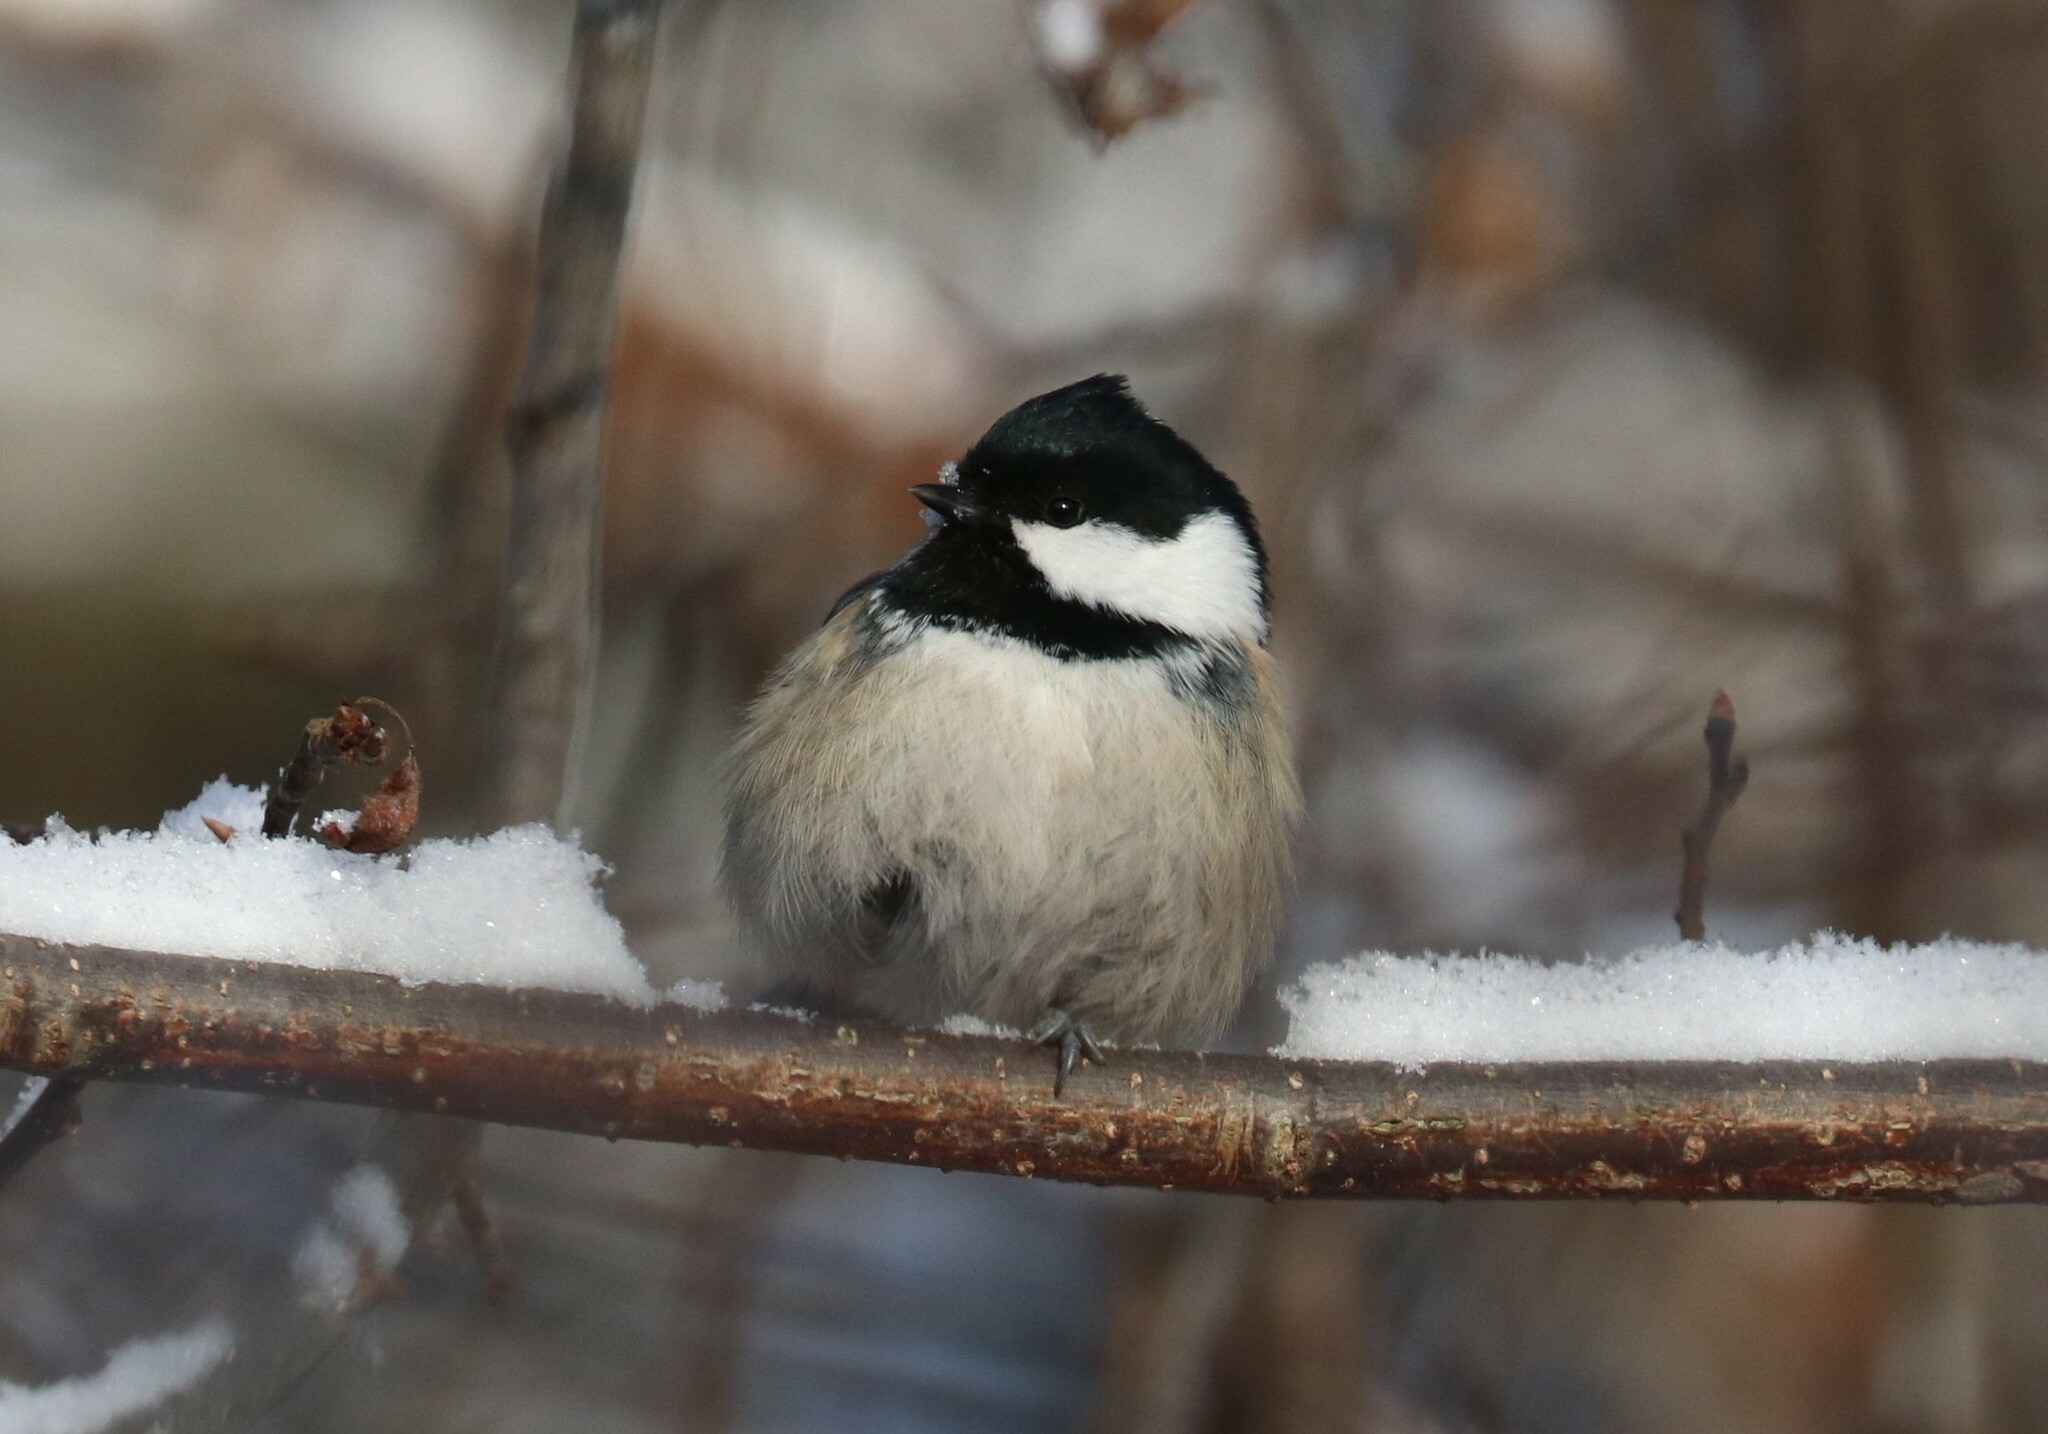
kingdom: Animalia
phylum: Chordata
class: Aves
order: Passeriformes
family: Paridae
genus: Periparus
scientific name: Periparus ater
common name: Coal tit
